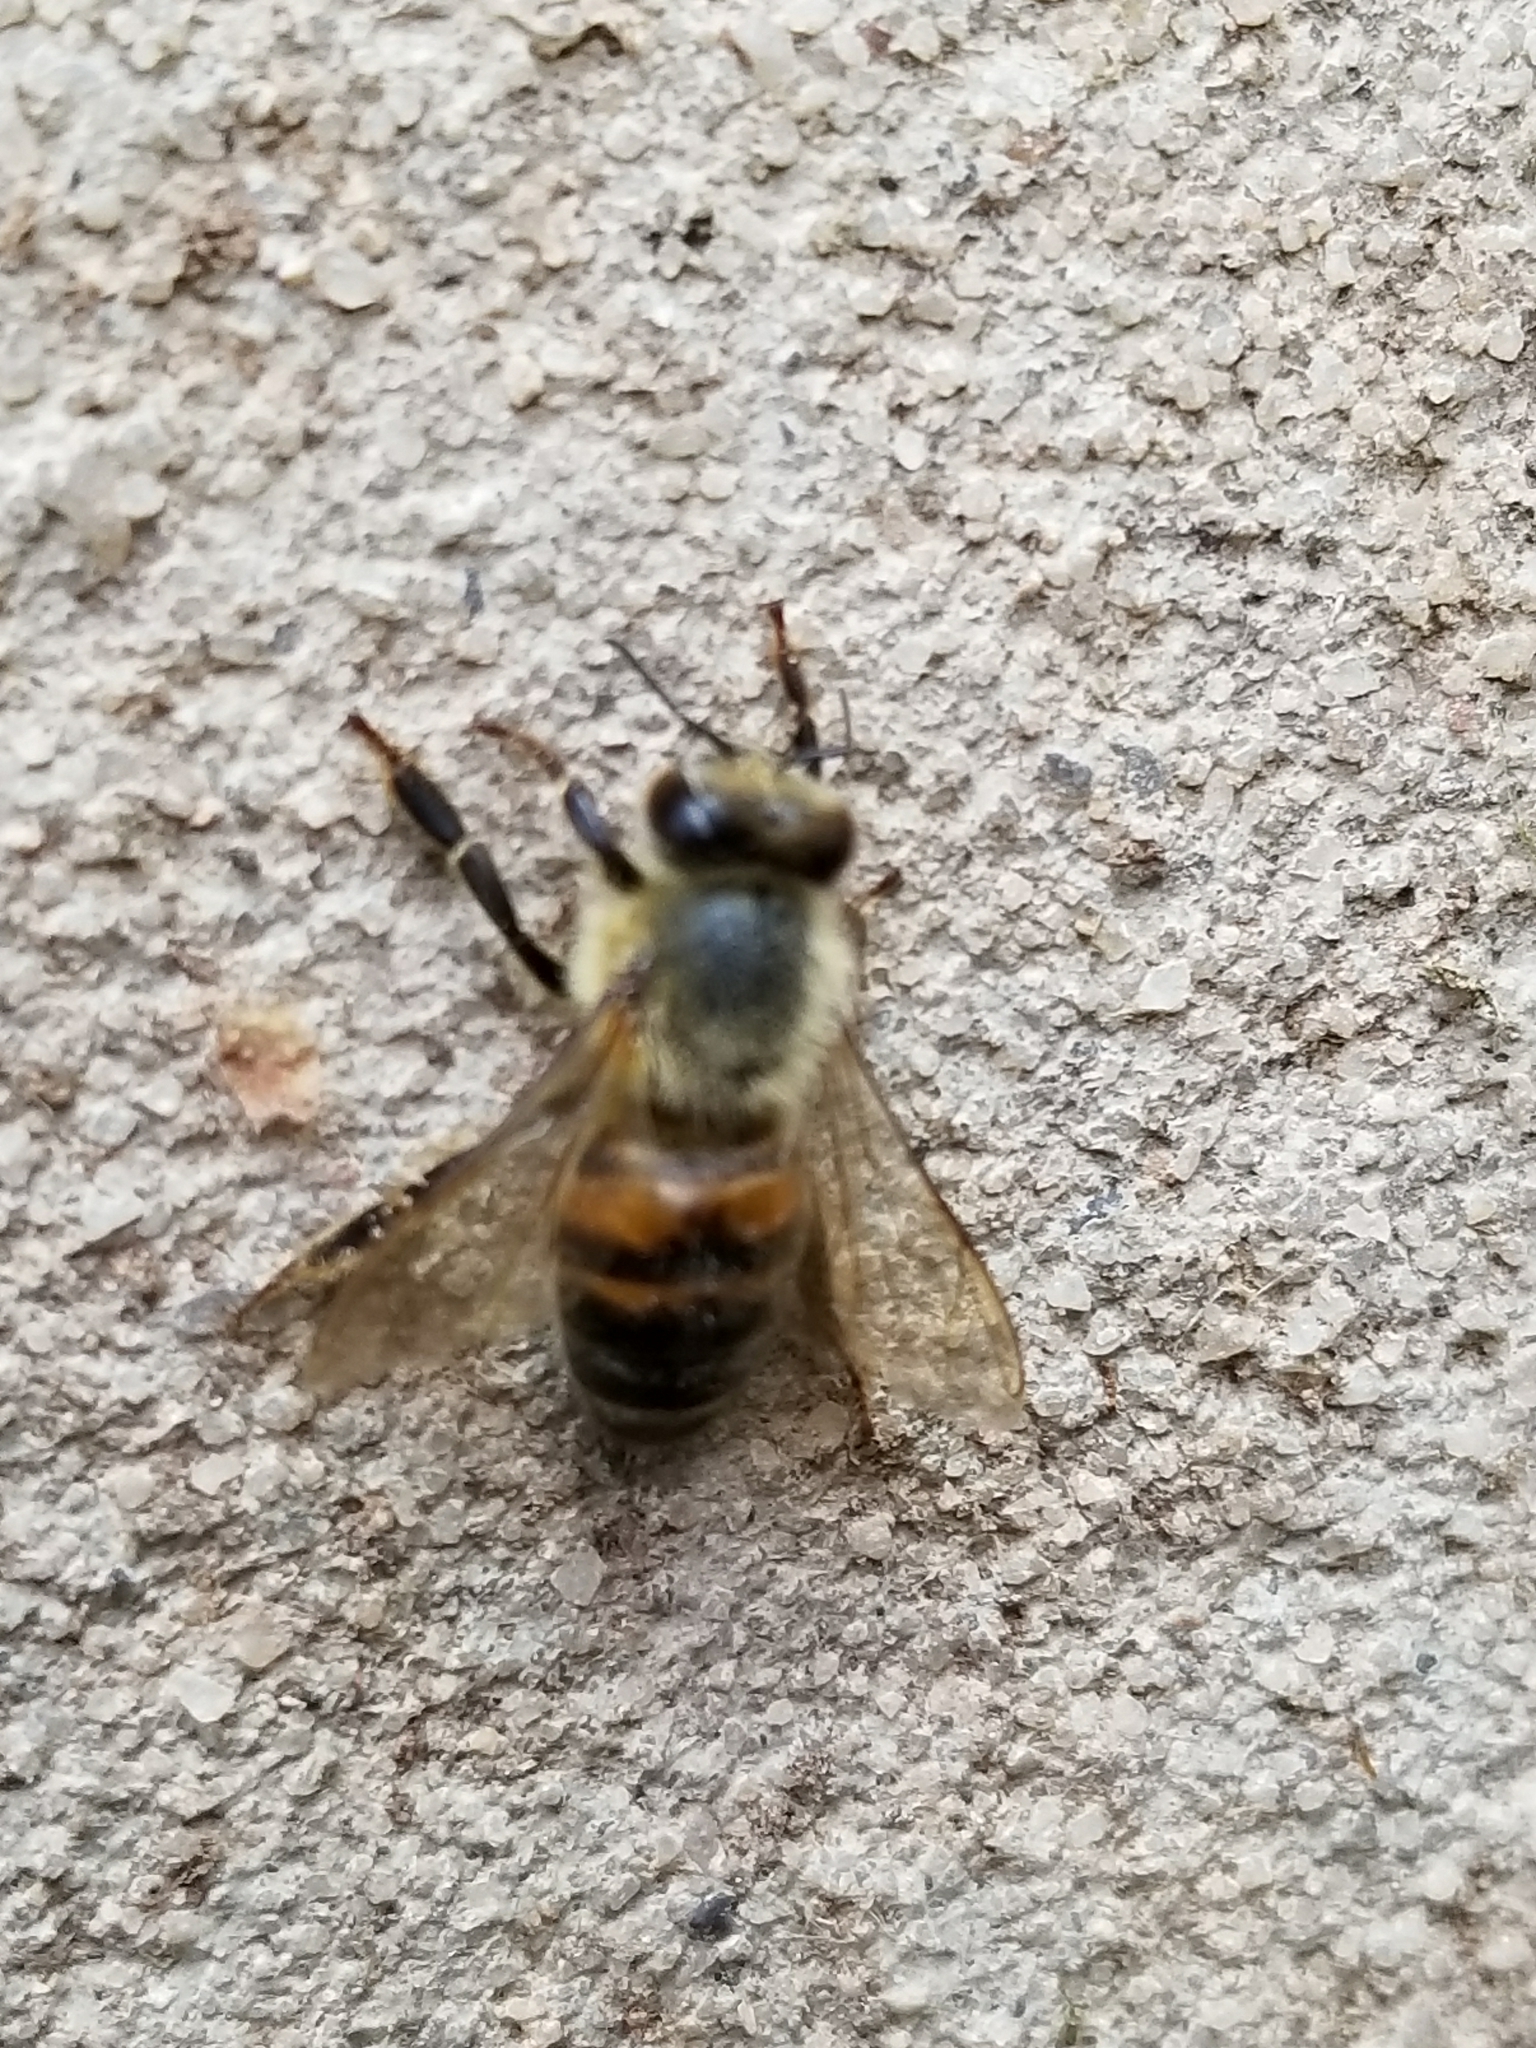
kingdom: Animalia
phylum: Arthropoda
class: Insecta
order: Hymenoptera
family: Apidae
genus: Apis
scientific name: Apis mellifera
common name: Honey bee
